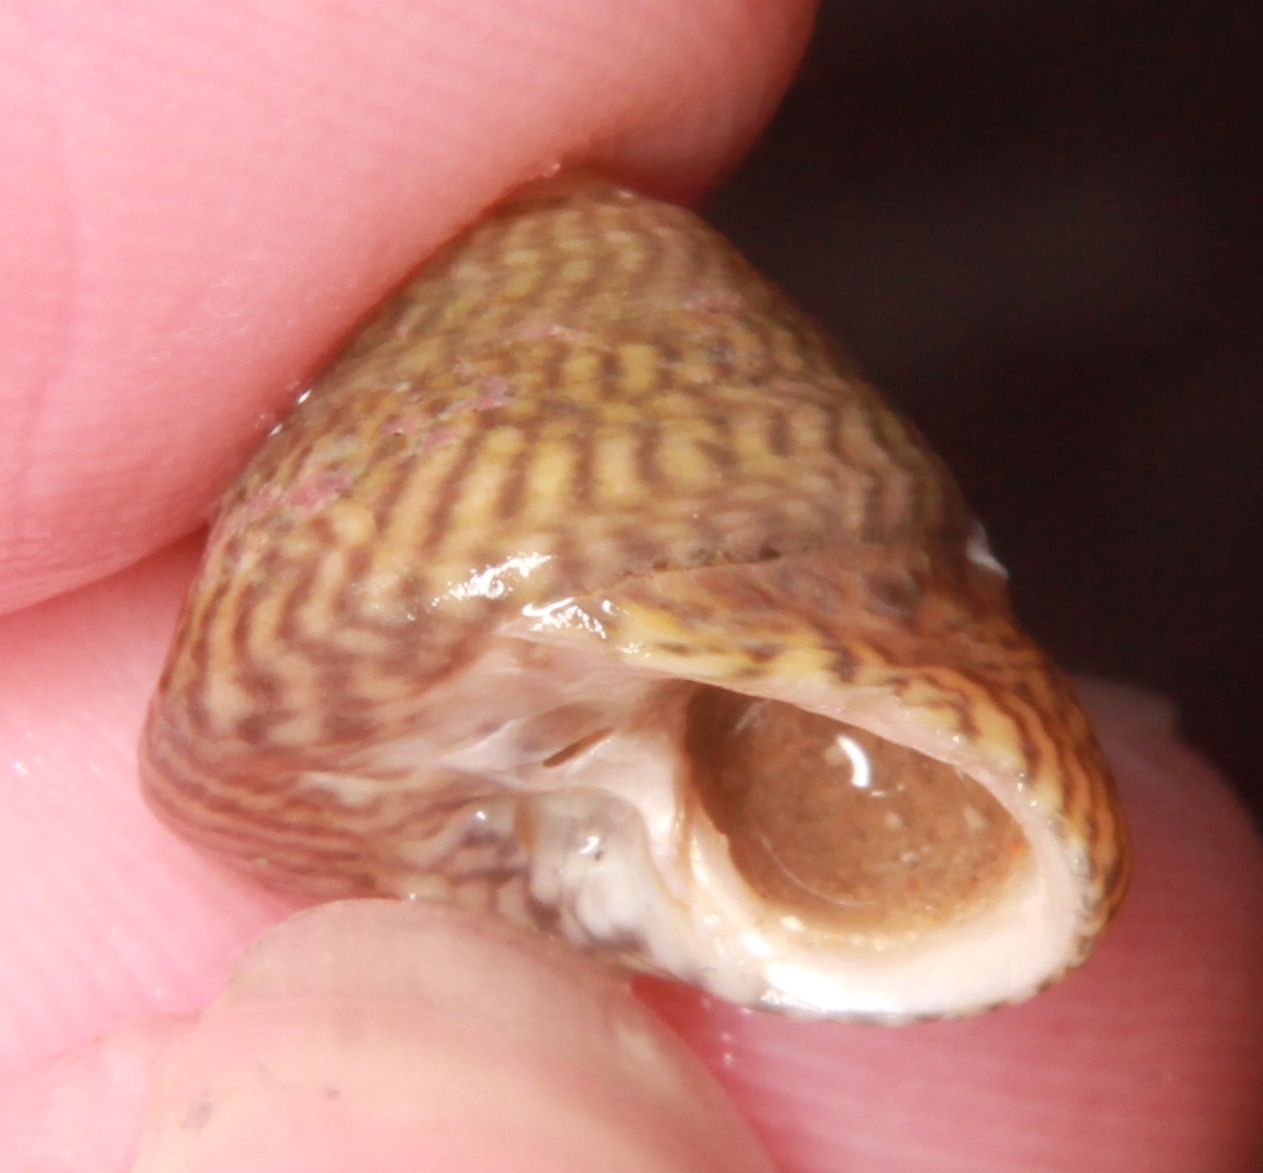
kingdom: Animalia
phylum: Mollusca
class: Gastropoda
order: Trochida
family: Trochidae
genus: Steromphala
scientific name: Steromphala cineraria
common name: Grey top shell
